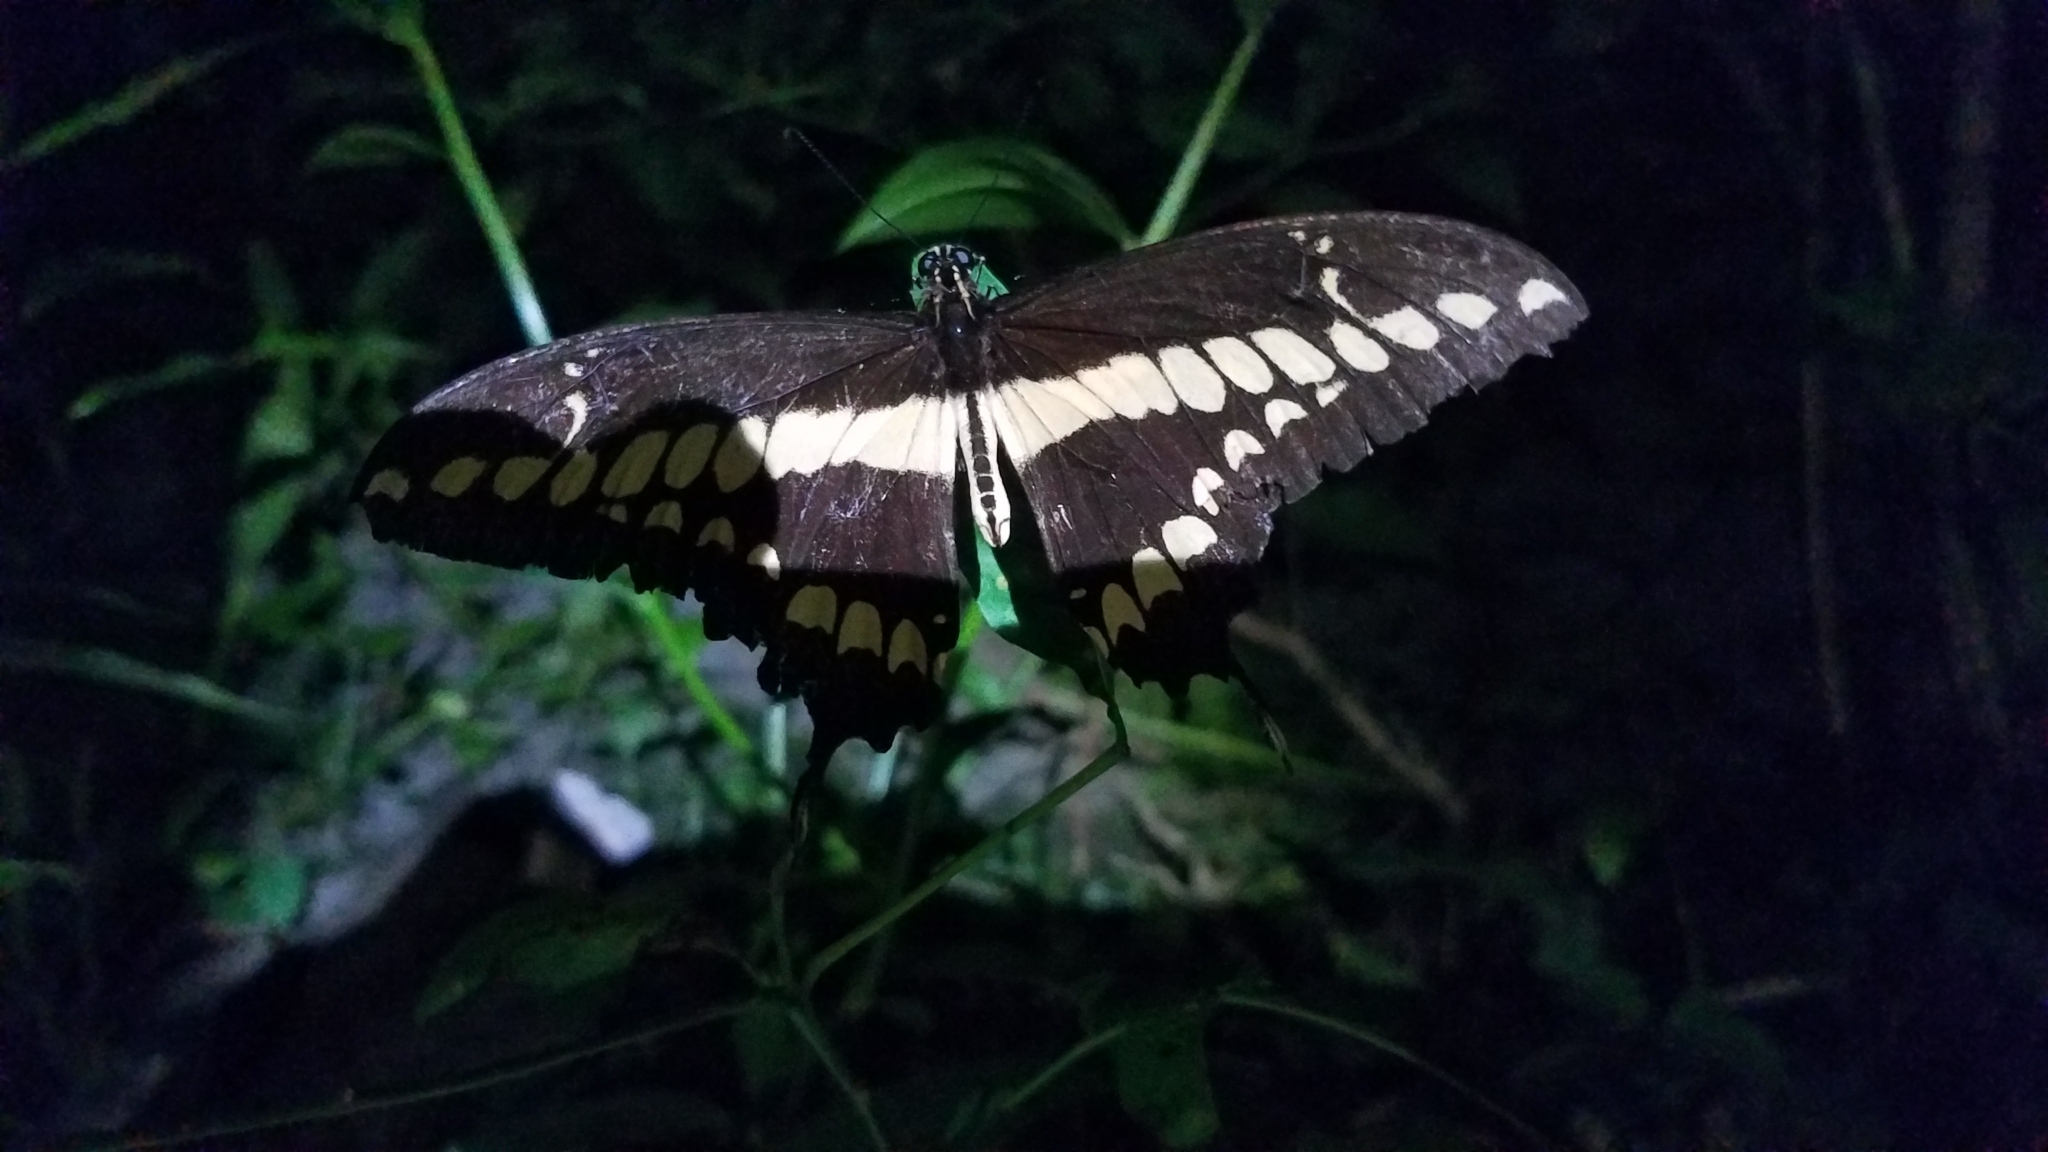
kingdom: Animalia
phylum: Arthropoda
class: Insecta
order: Lepidoptera
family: Papilionidae
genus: Papilio
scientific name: Papilio thoas
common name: King swallowtail
